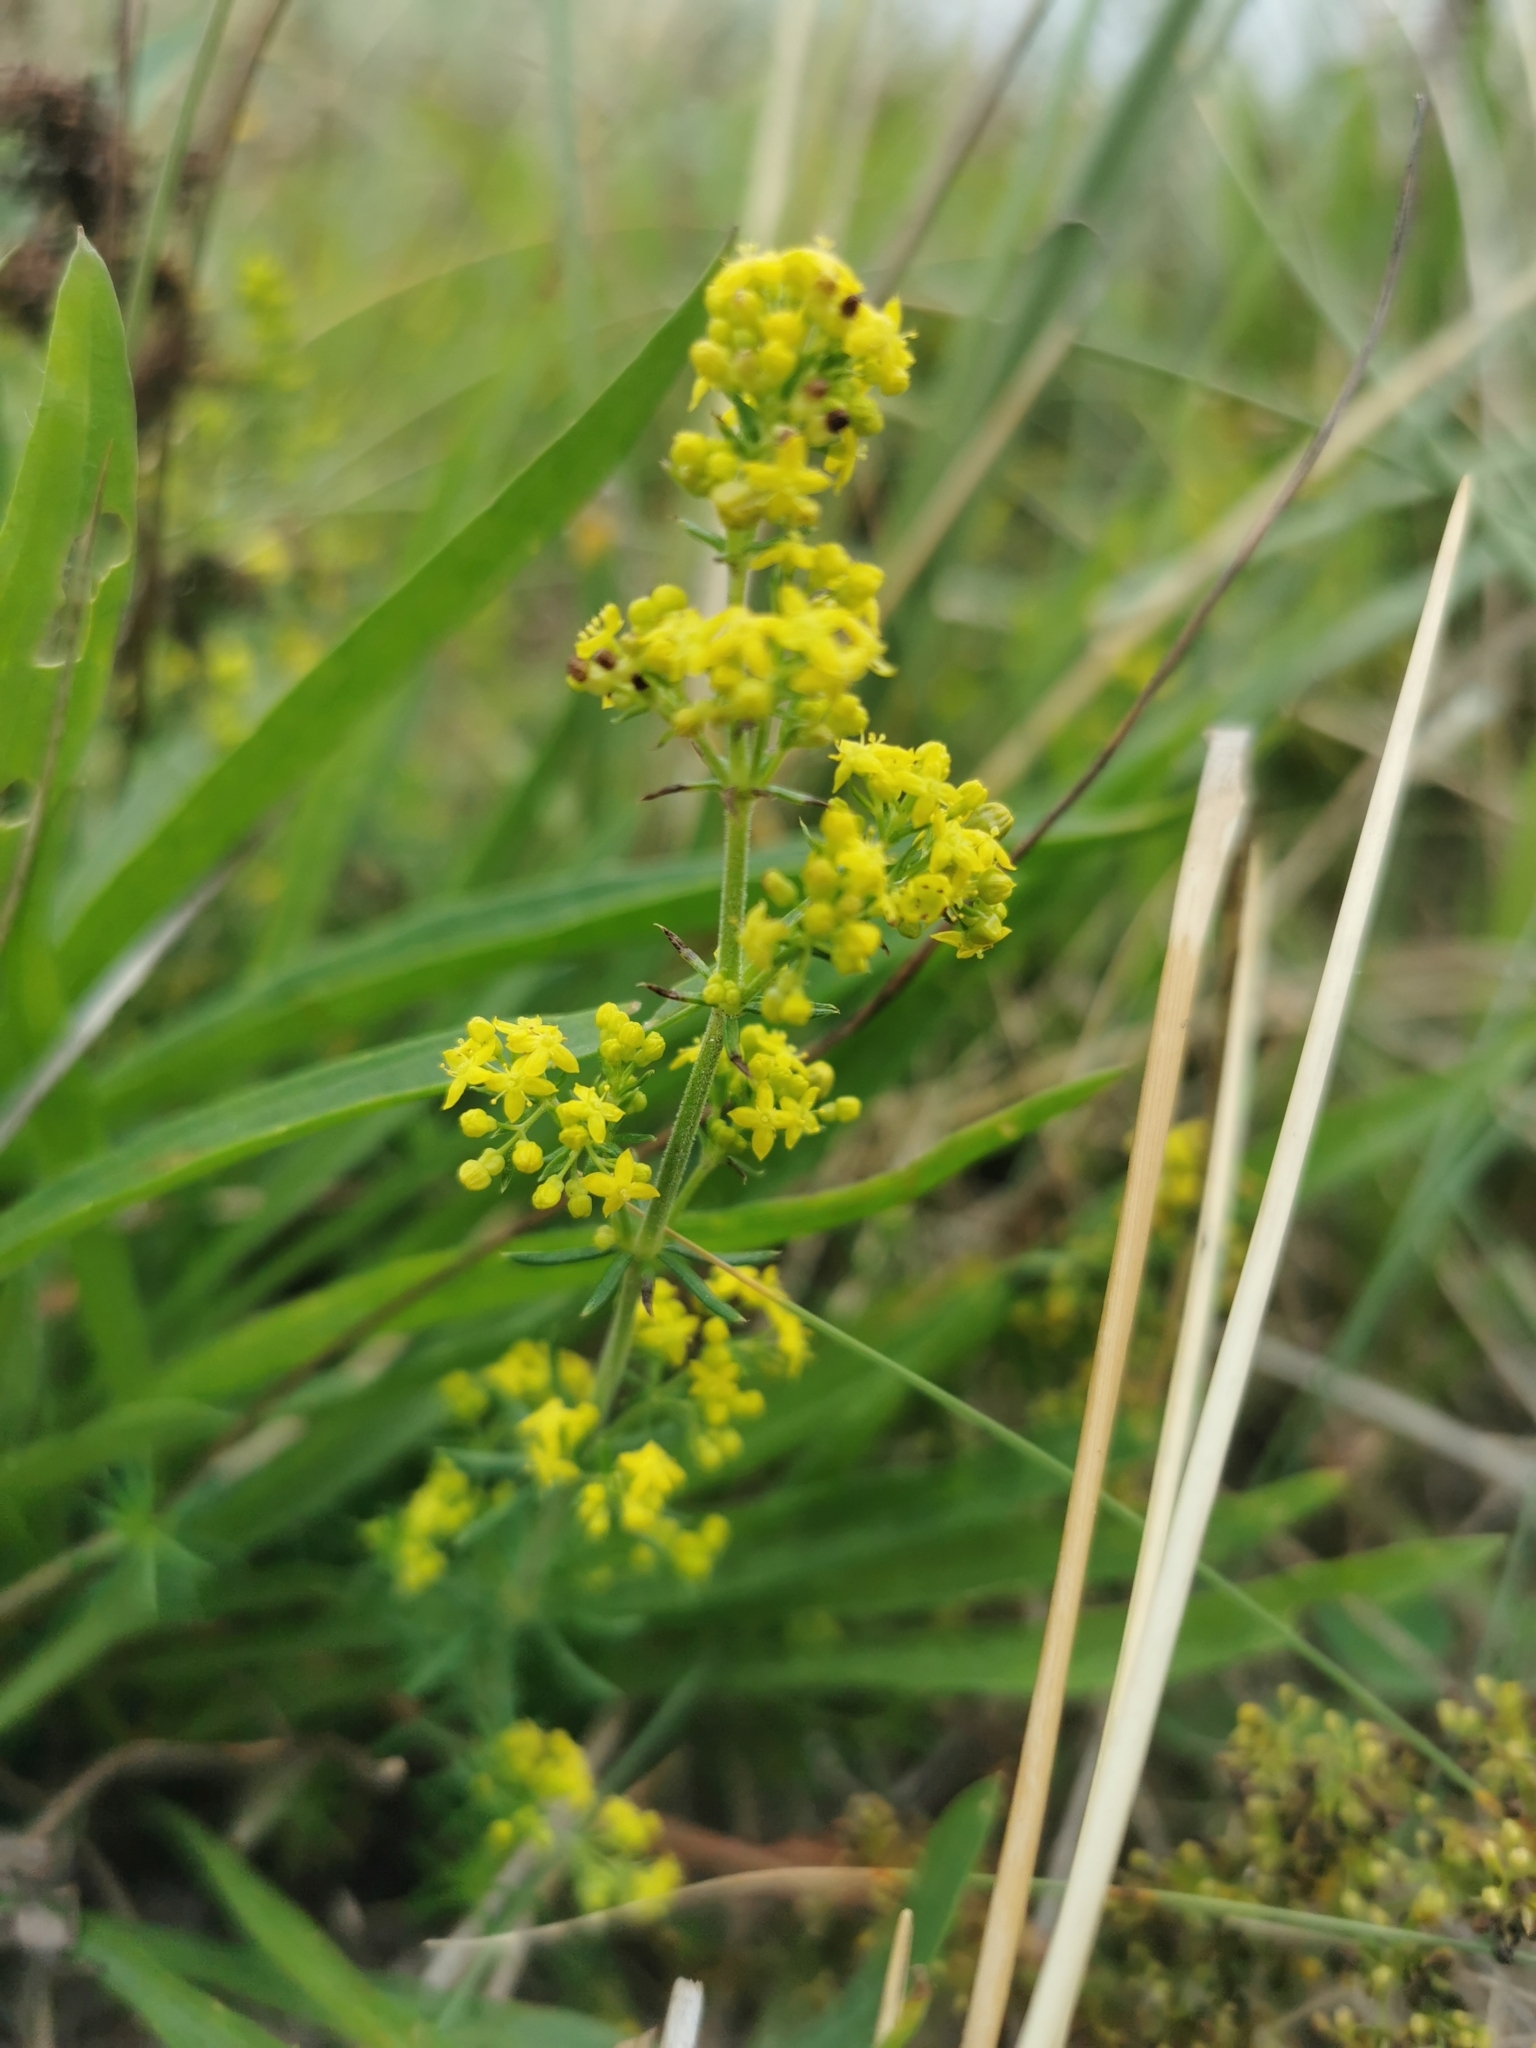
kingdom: Plantae
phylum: Tracheophyta
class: Magnoliopsida
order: Gentianales
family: Rubiaceae
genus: Galium
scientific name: Galium verum
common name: Lady's bedstraw
